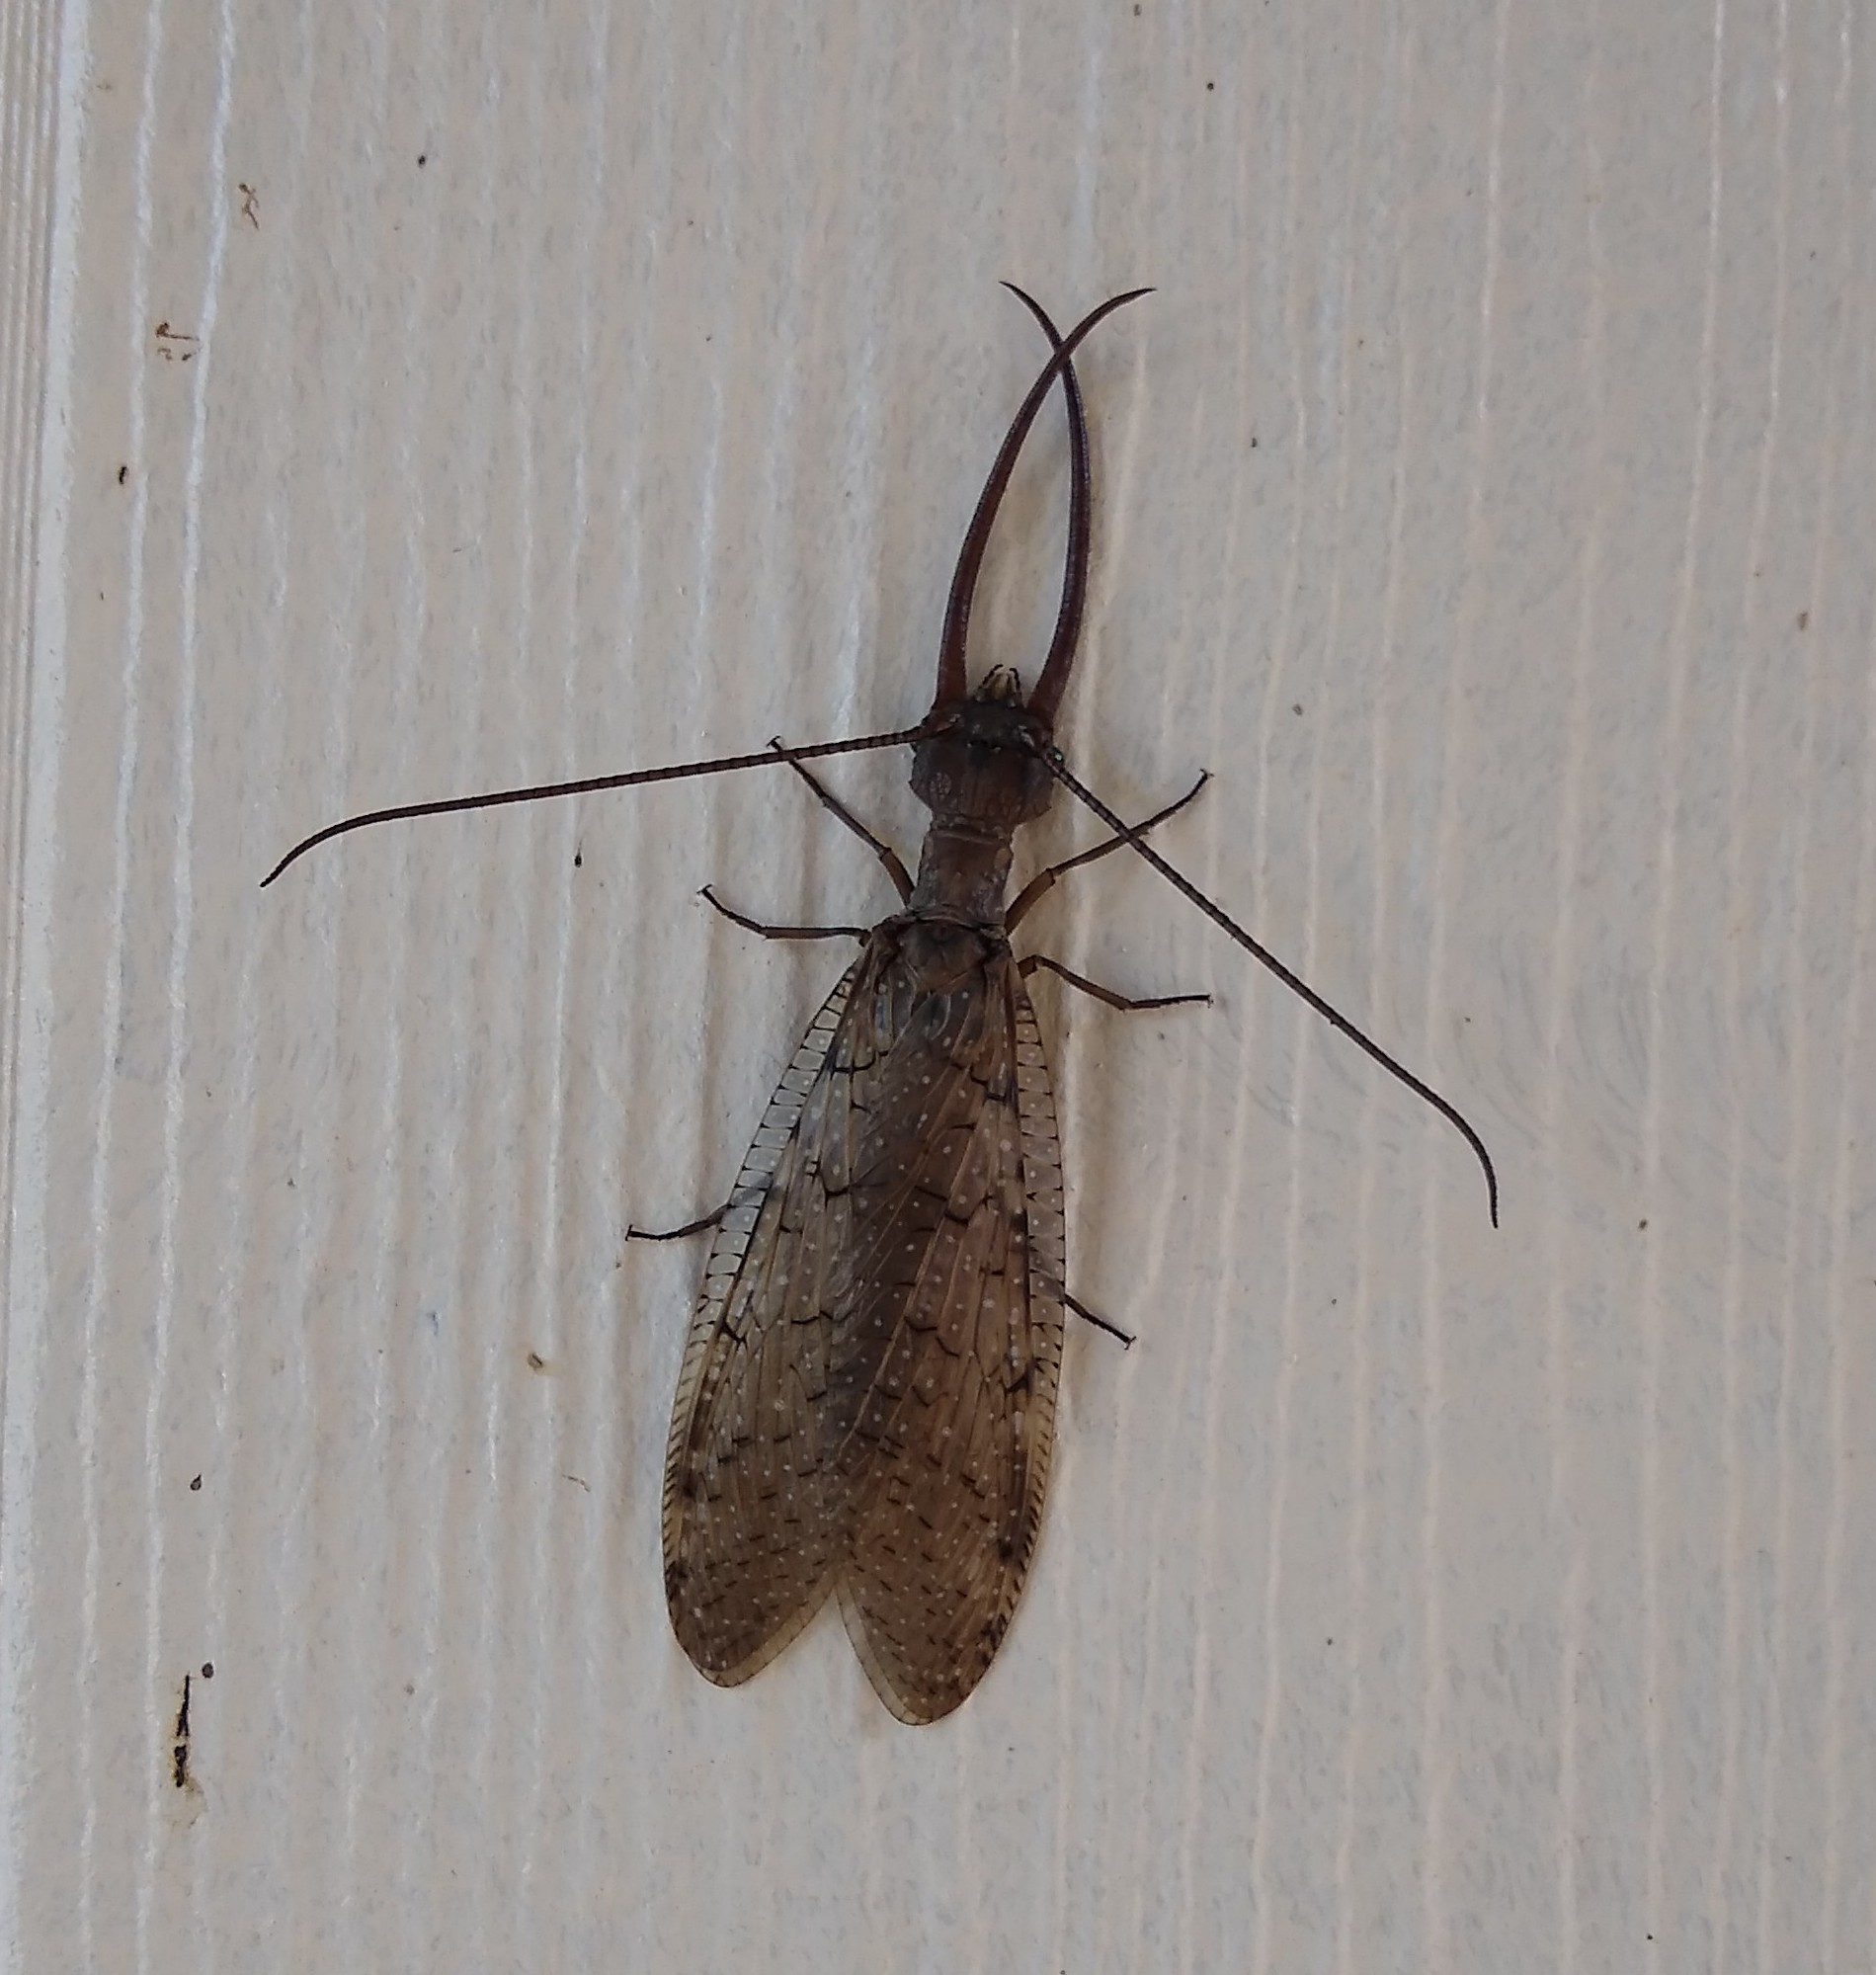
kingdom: Animalia
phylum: Arthropoda
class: Insecta
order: Megaloptera
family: Corydalidae
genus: Corydalus
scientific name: Corydalus cornutus
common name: Dobsonfly
